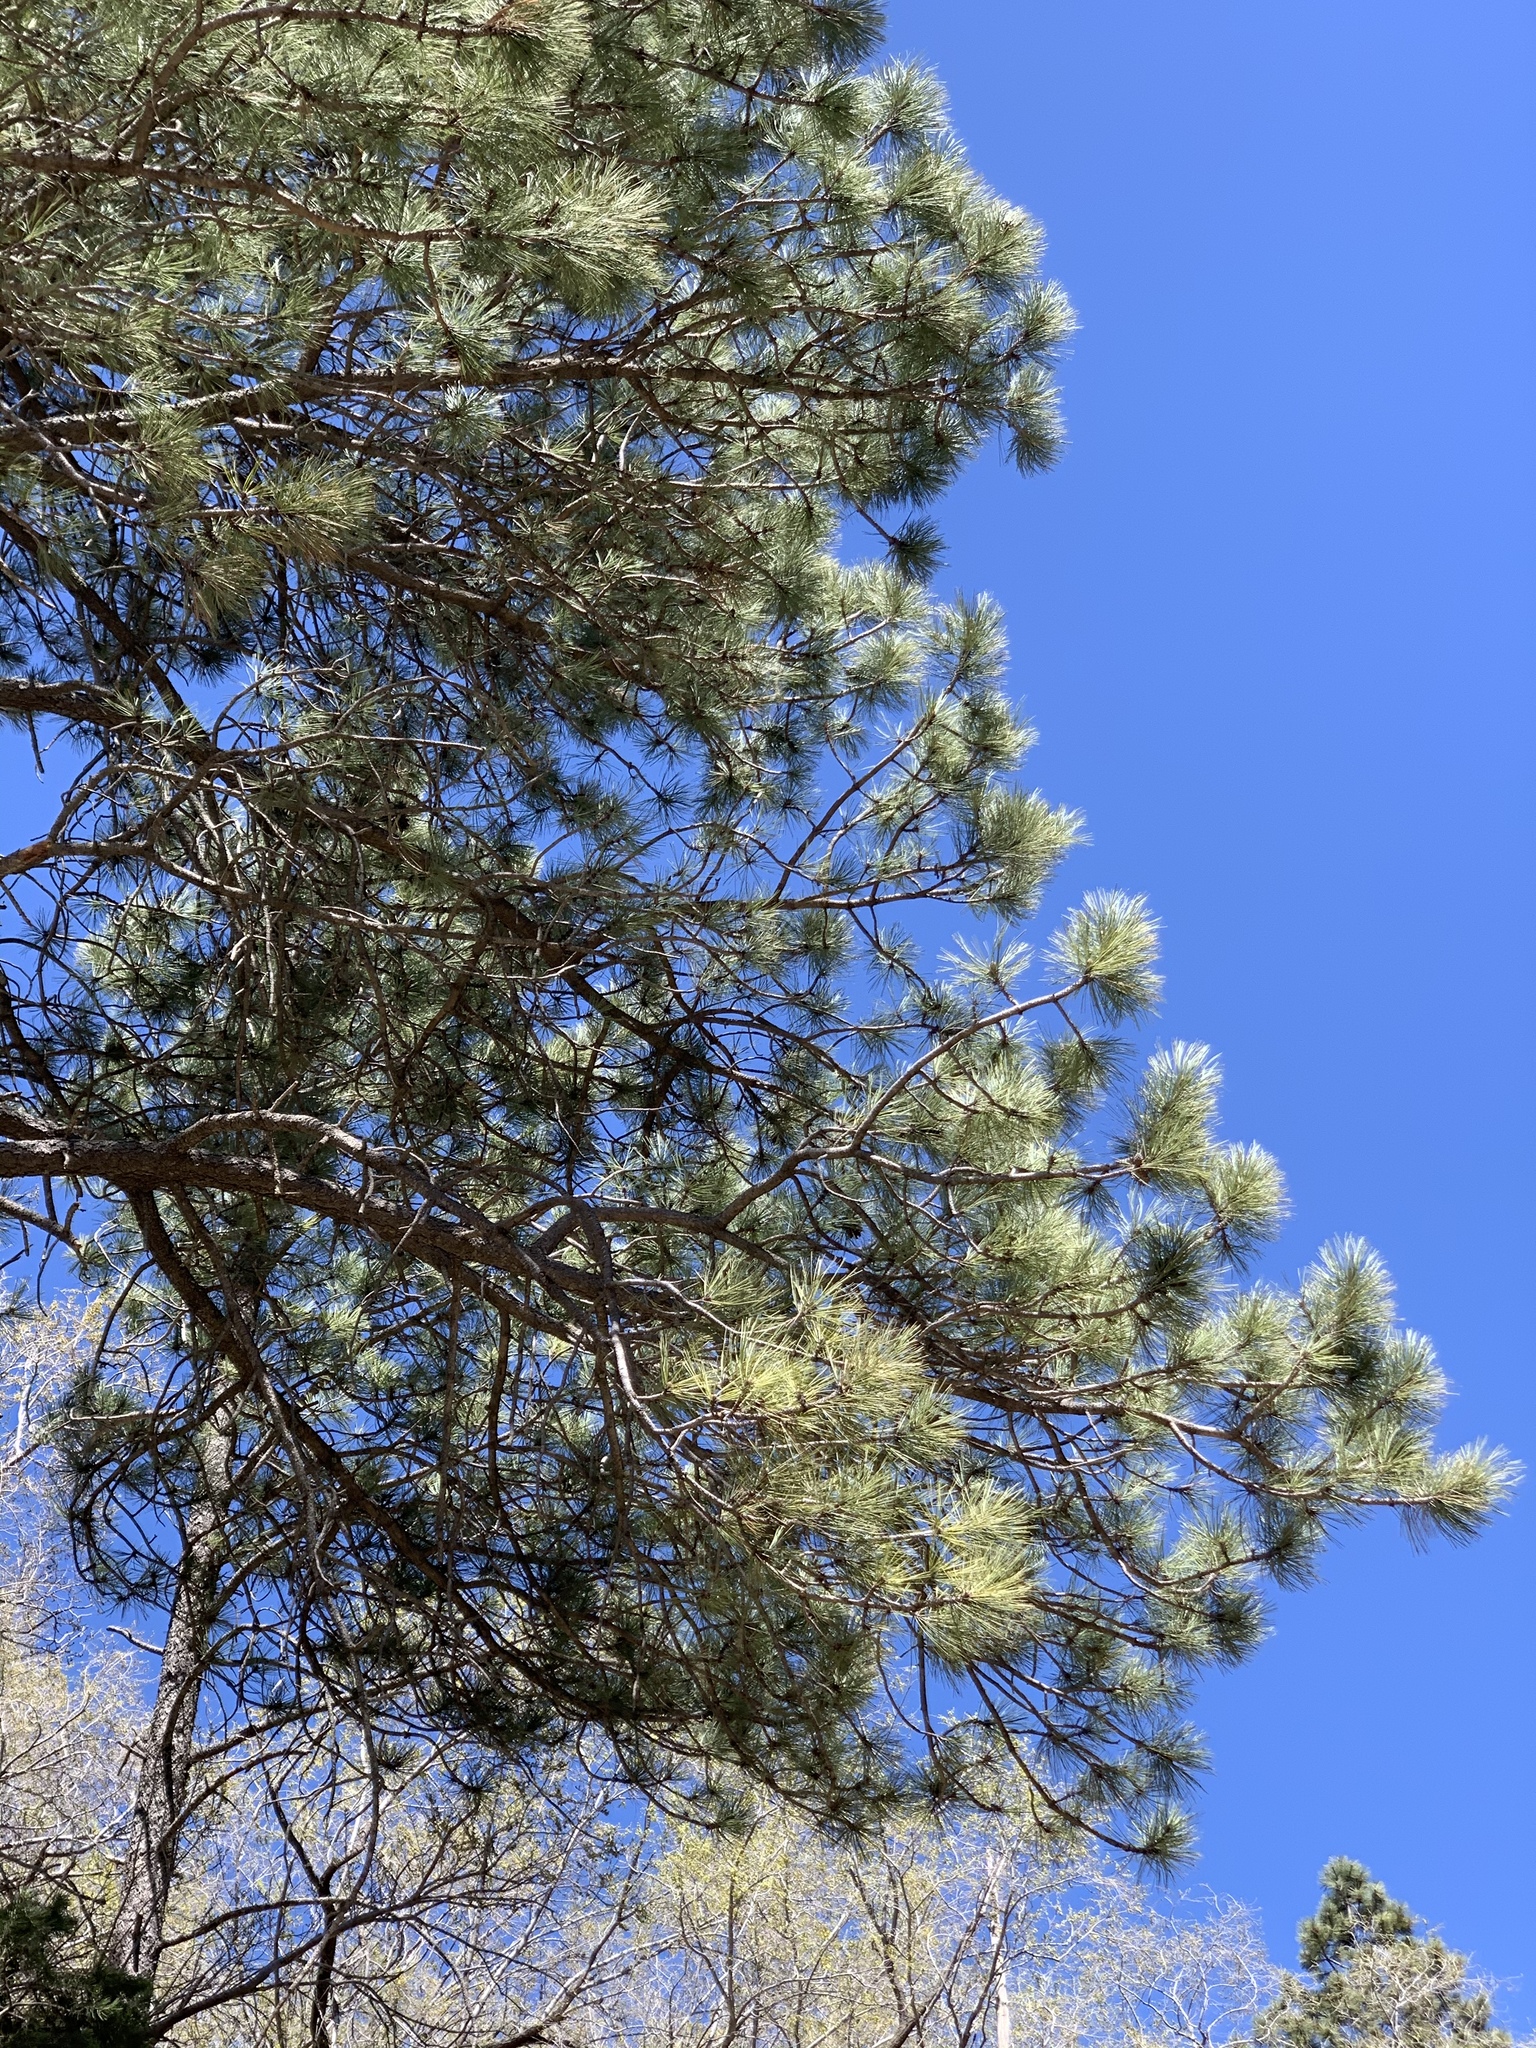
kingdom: Plantae
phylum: Tracheophyta
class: Pinopsida
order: Pinales
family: Pinaceae
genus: Pinus
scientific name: Pinus ponderosa
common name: Western yellow-pine
